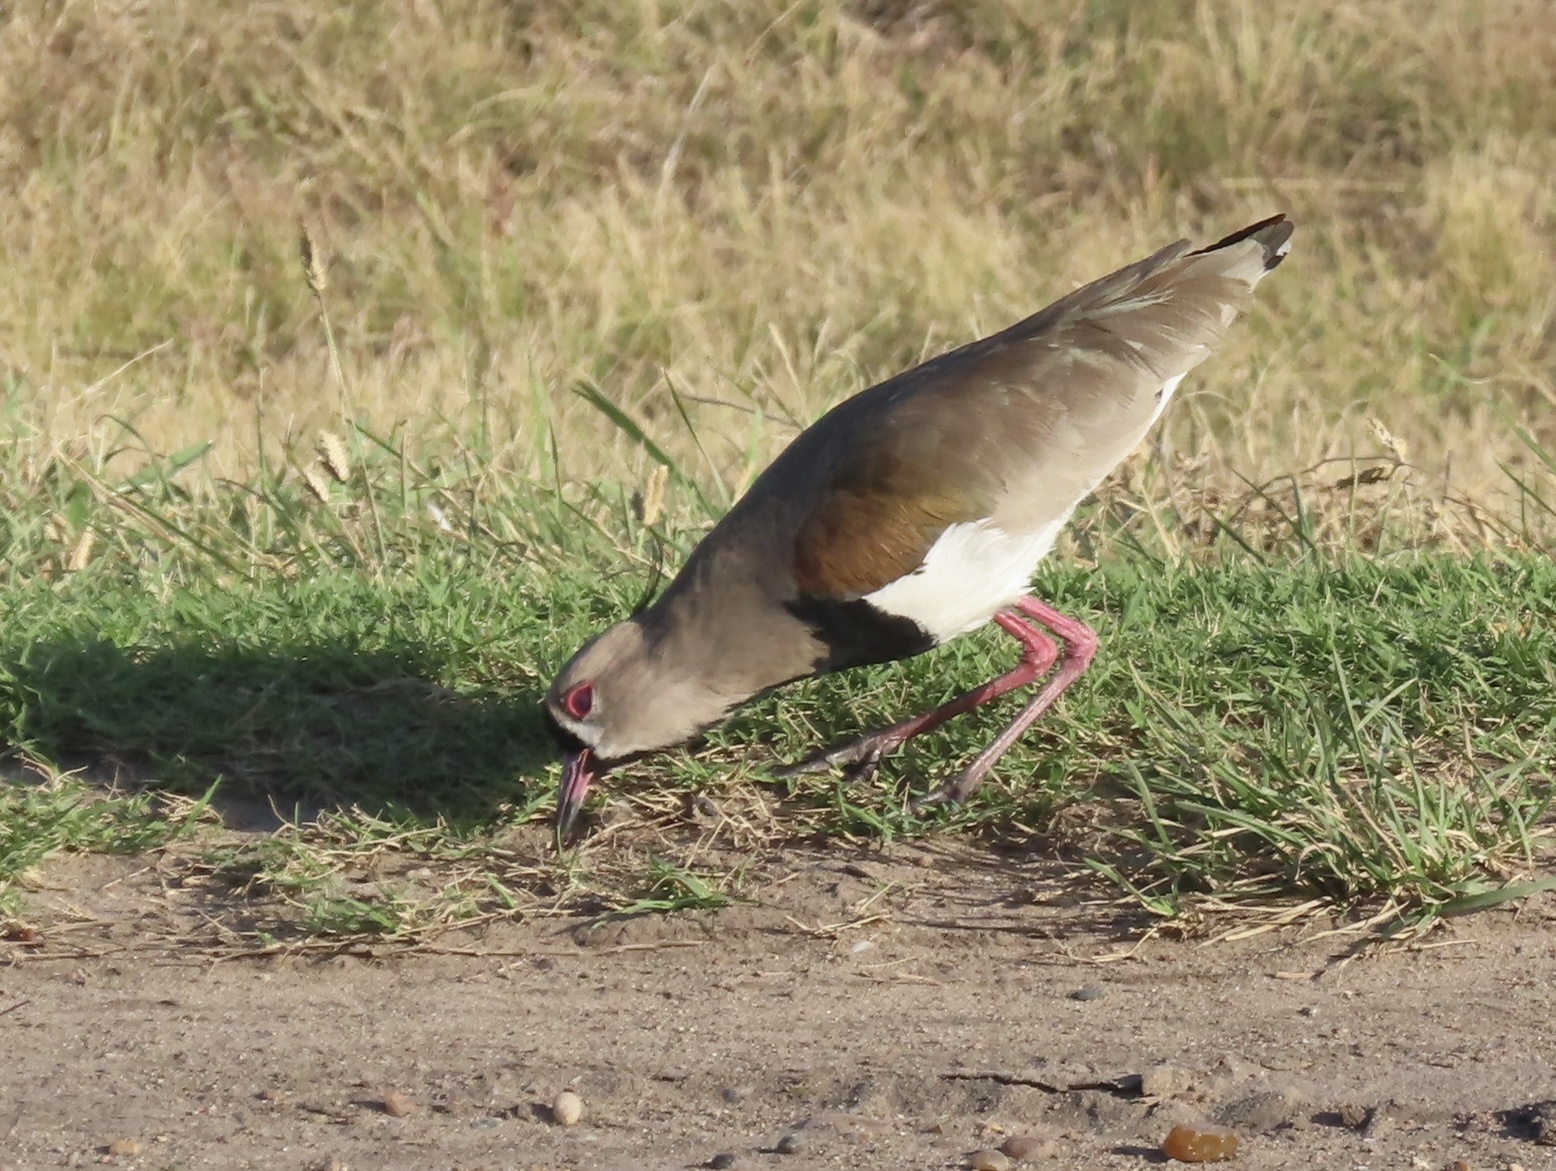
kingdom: Animalia
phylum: Chordata
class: Aves
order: Charadriiformes
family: Charadriidae
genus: Vanellus
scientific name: Vanellus chilensis
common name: Southern lapwing
